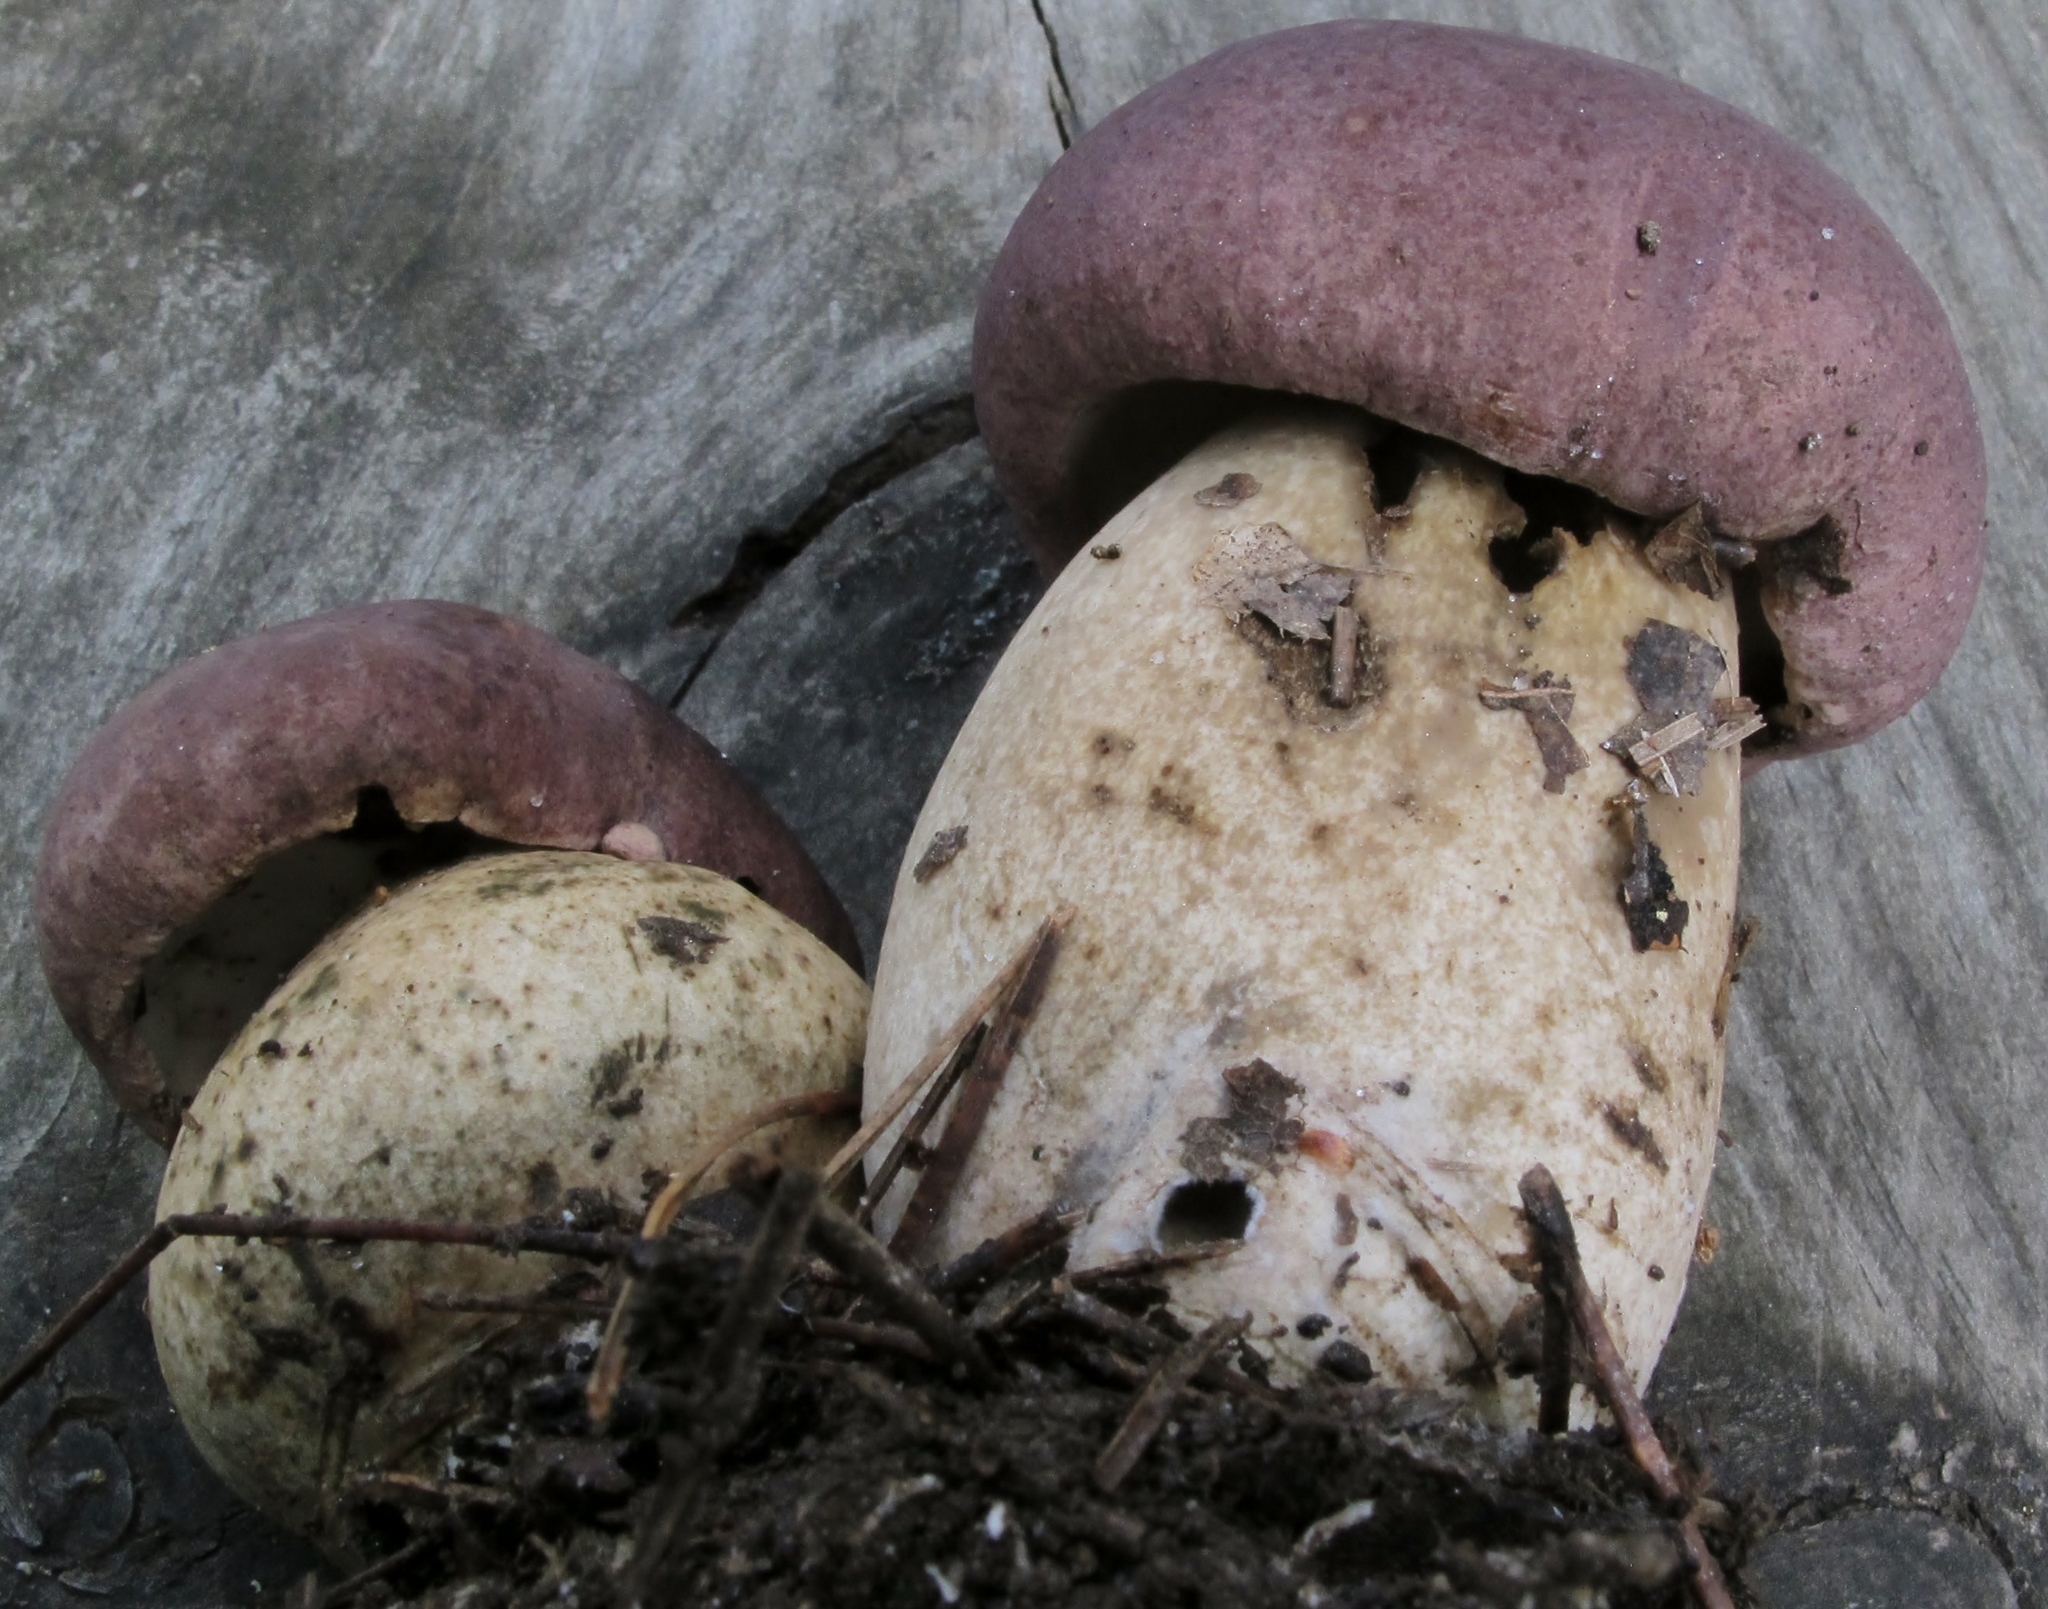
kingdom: Fungi
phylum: Basidiomycota
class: Agaricomycetes
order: Boletales
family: Boletaceae
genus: Tylopilus
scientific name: Tylopilus rubrobrunneus
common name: Reddish brown bitter bolete
